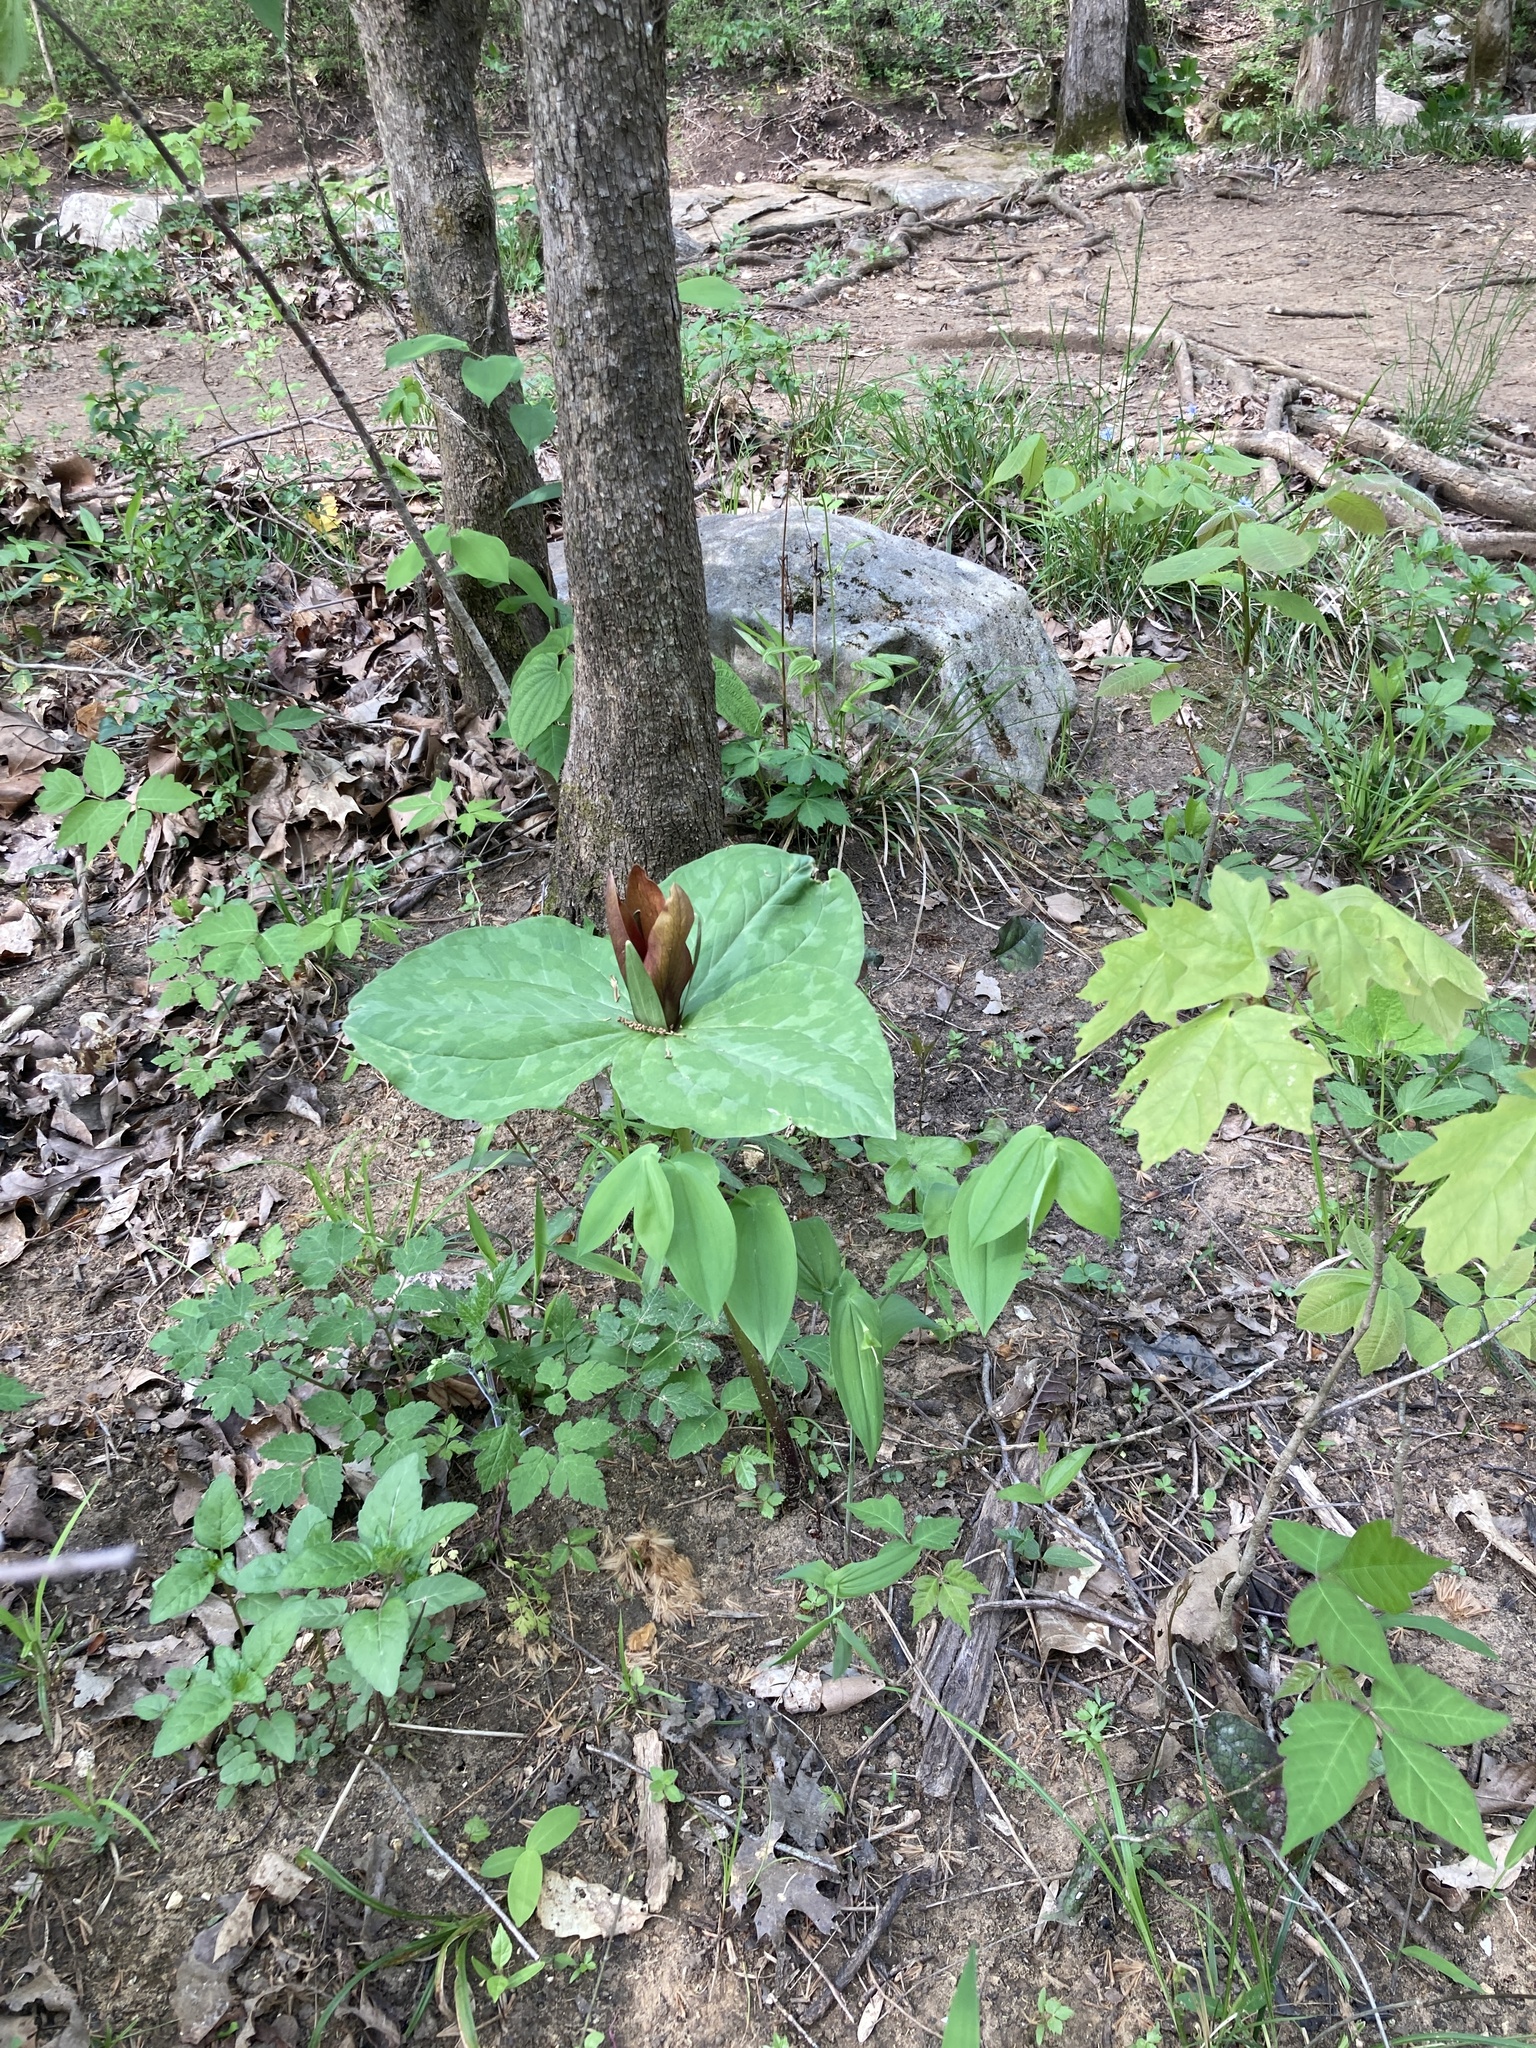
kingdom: Plantae
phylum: Tracheophyta
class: Liliopsida
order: Liliales
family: Melanthiaceae
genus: Trillium
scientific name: Trillium cuneatum
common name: Cuneate trillium
